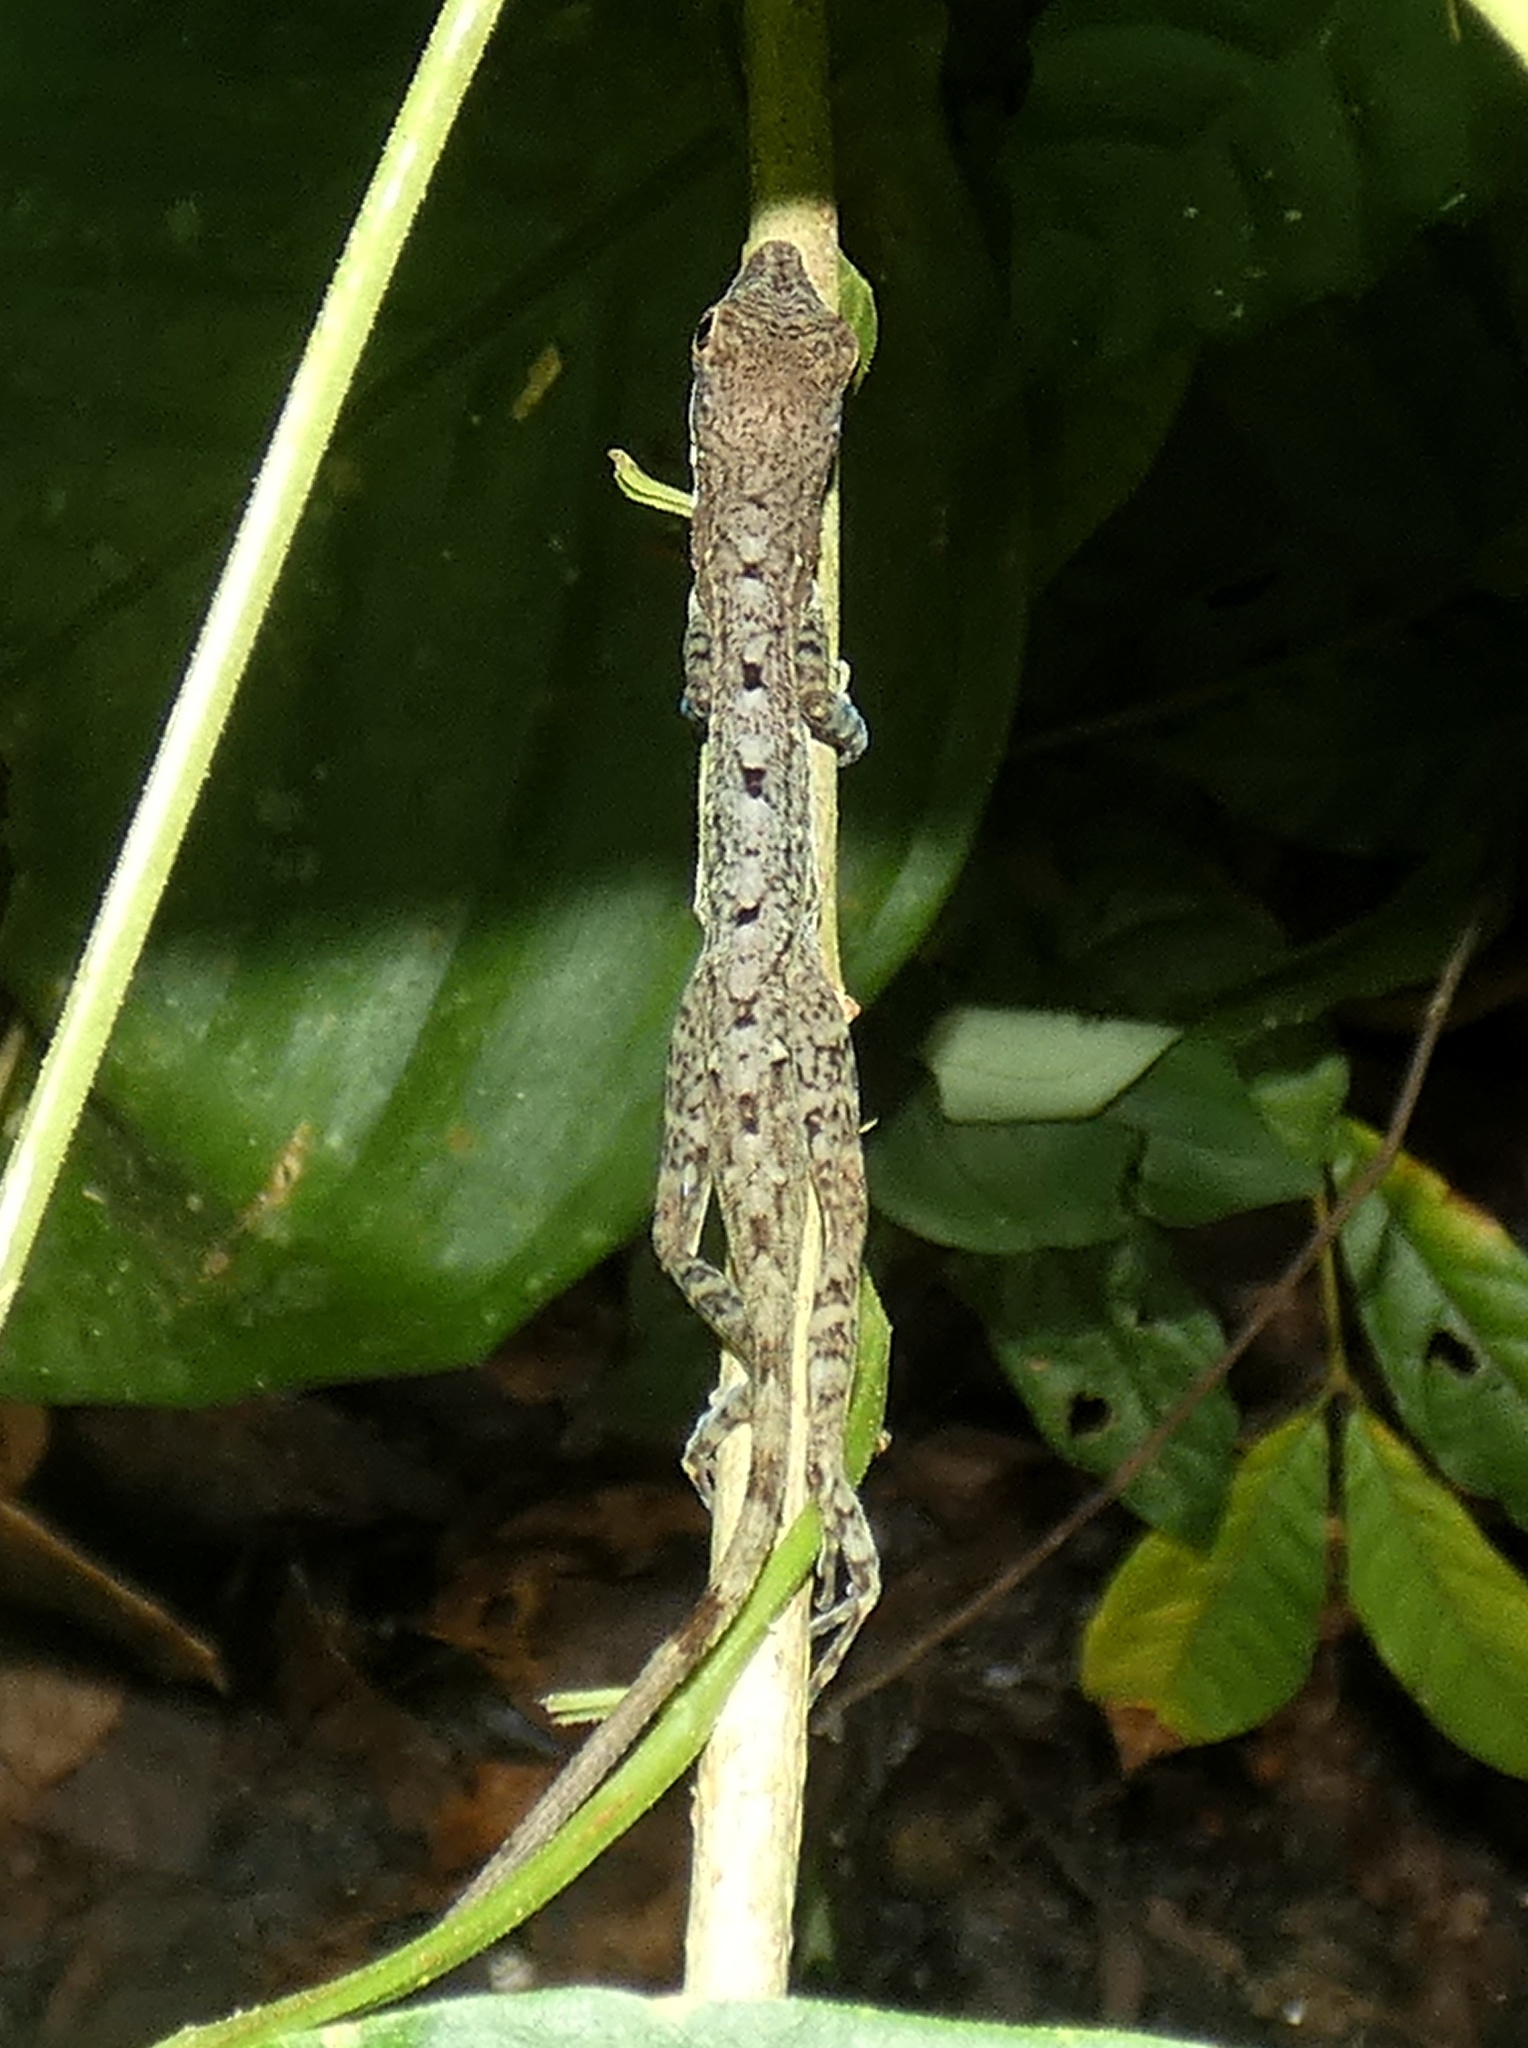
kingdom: Animalia
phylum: Chordata
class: Squamata
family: Dactyloidae
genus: Anolis
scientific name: Anolis apletophallus
